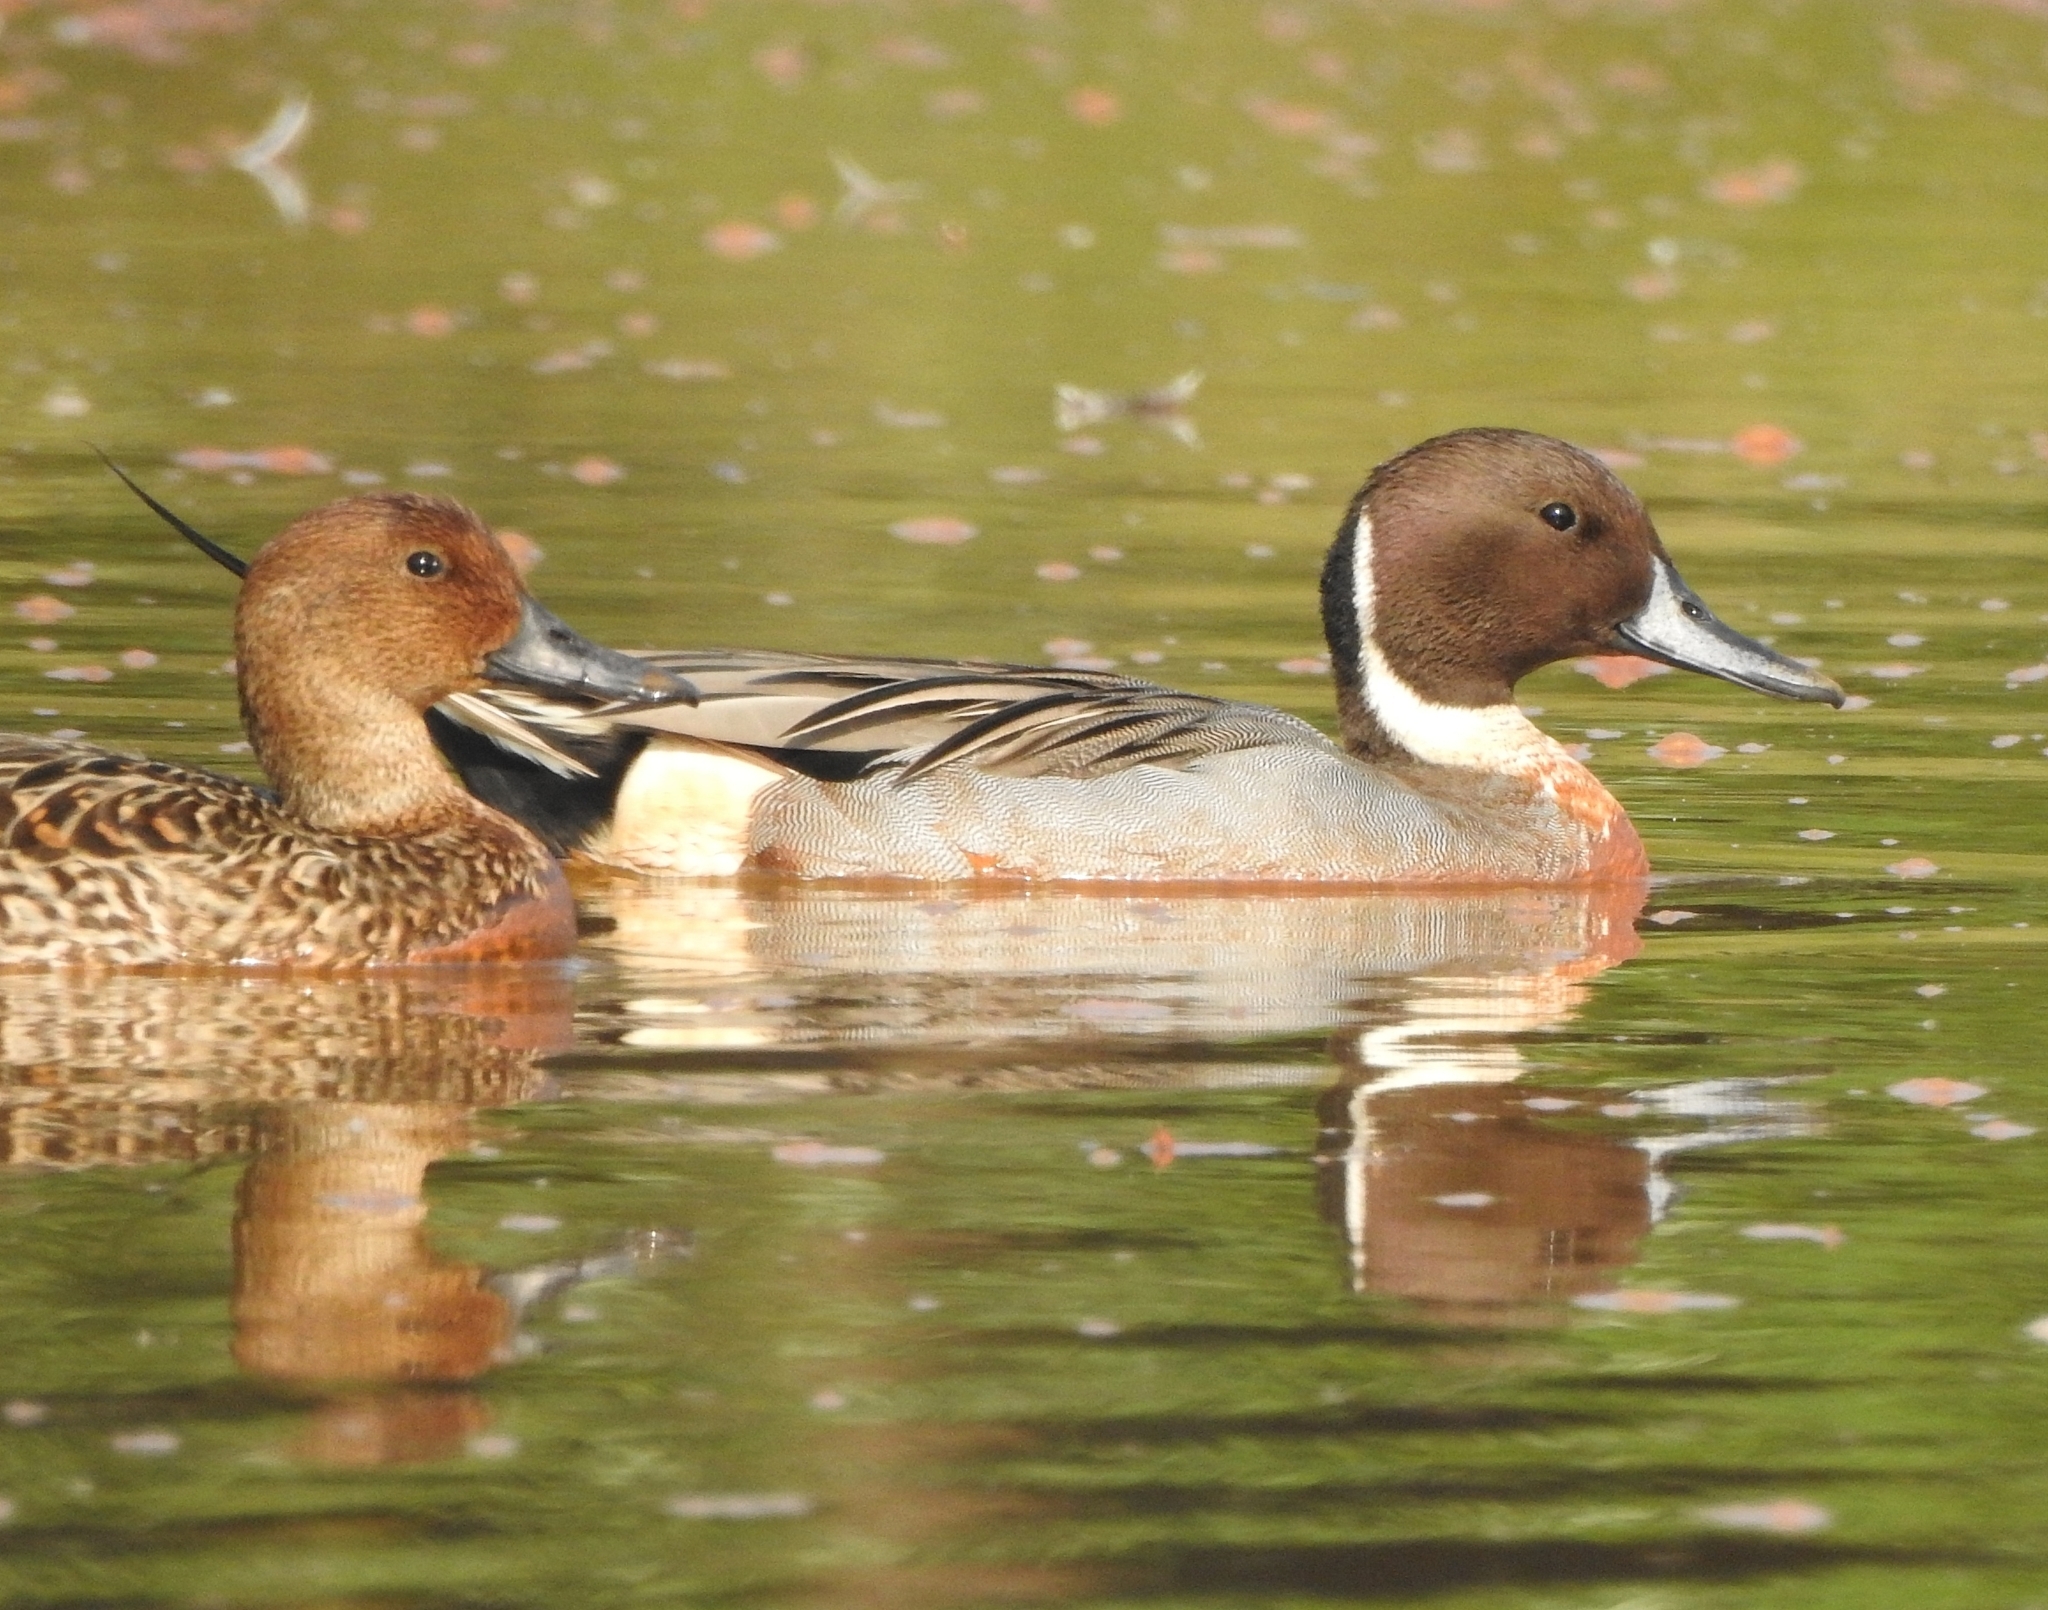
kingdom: Animalia
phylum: Chordata
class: Aves
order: Anseriformes
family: Anatidae
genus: Anas
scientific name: Anas acuta
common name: Northern pintail
